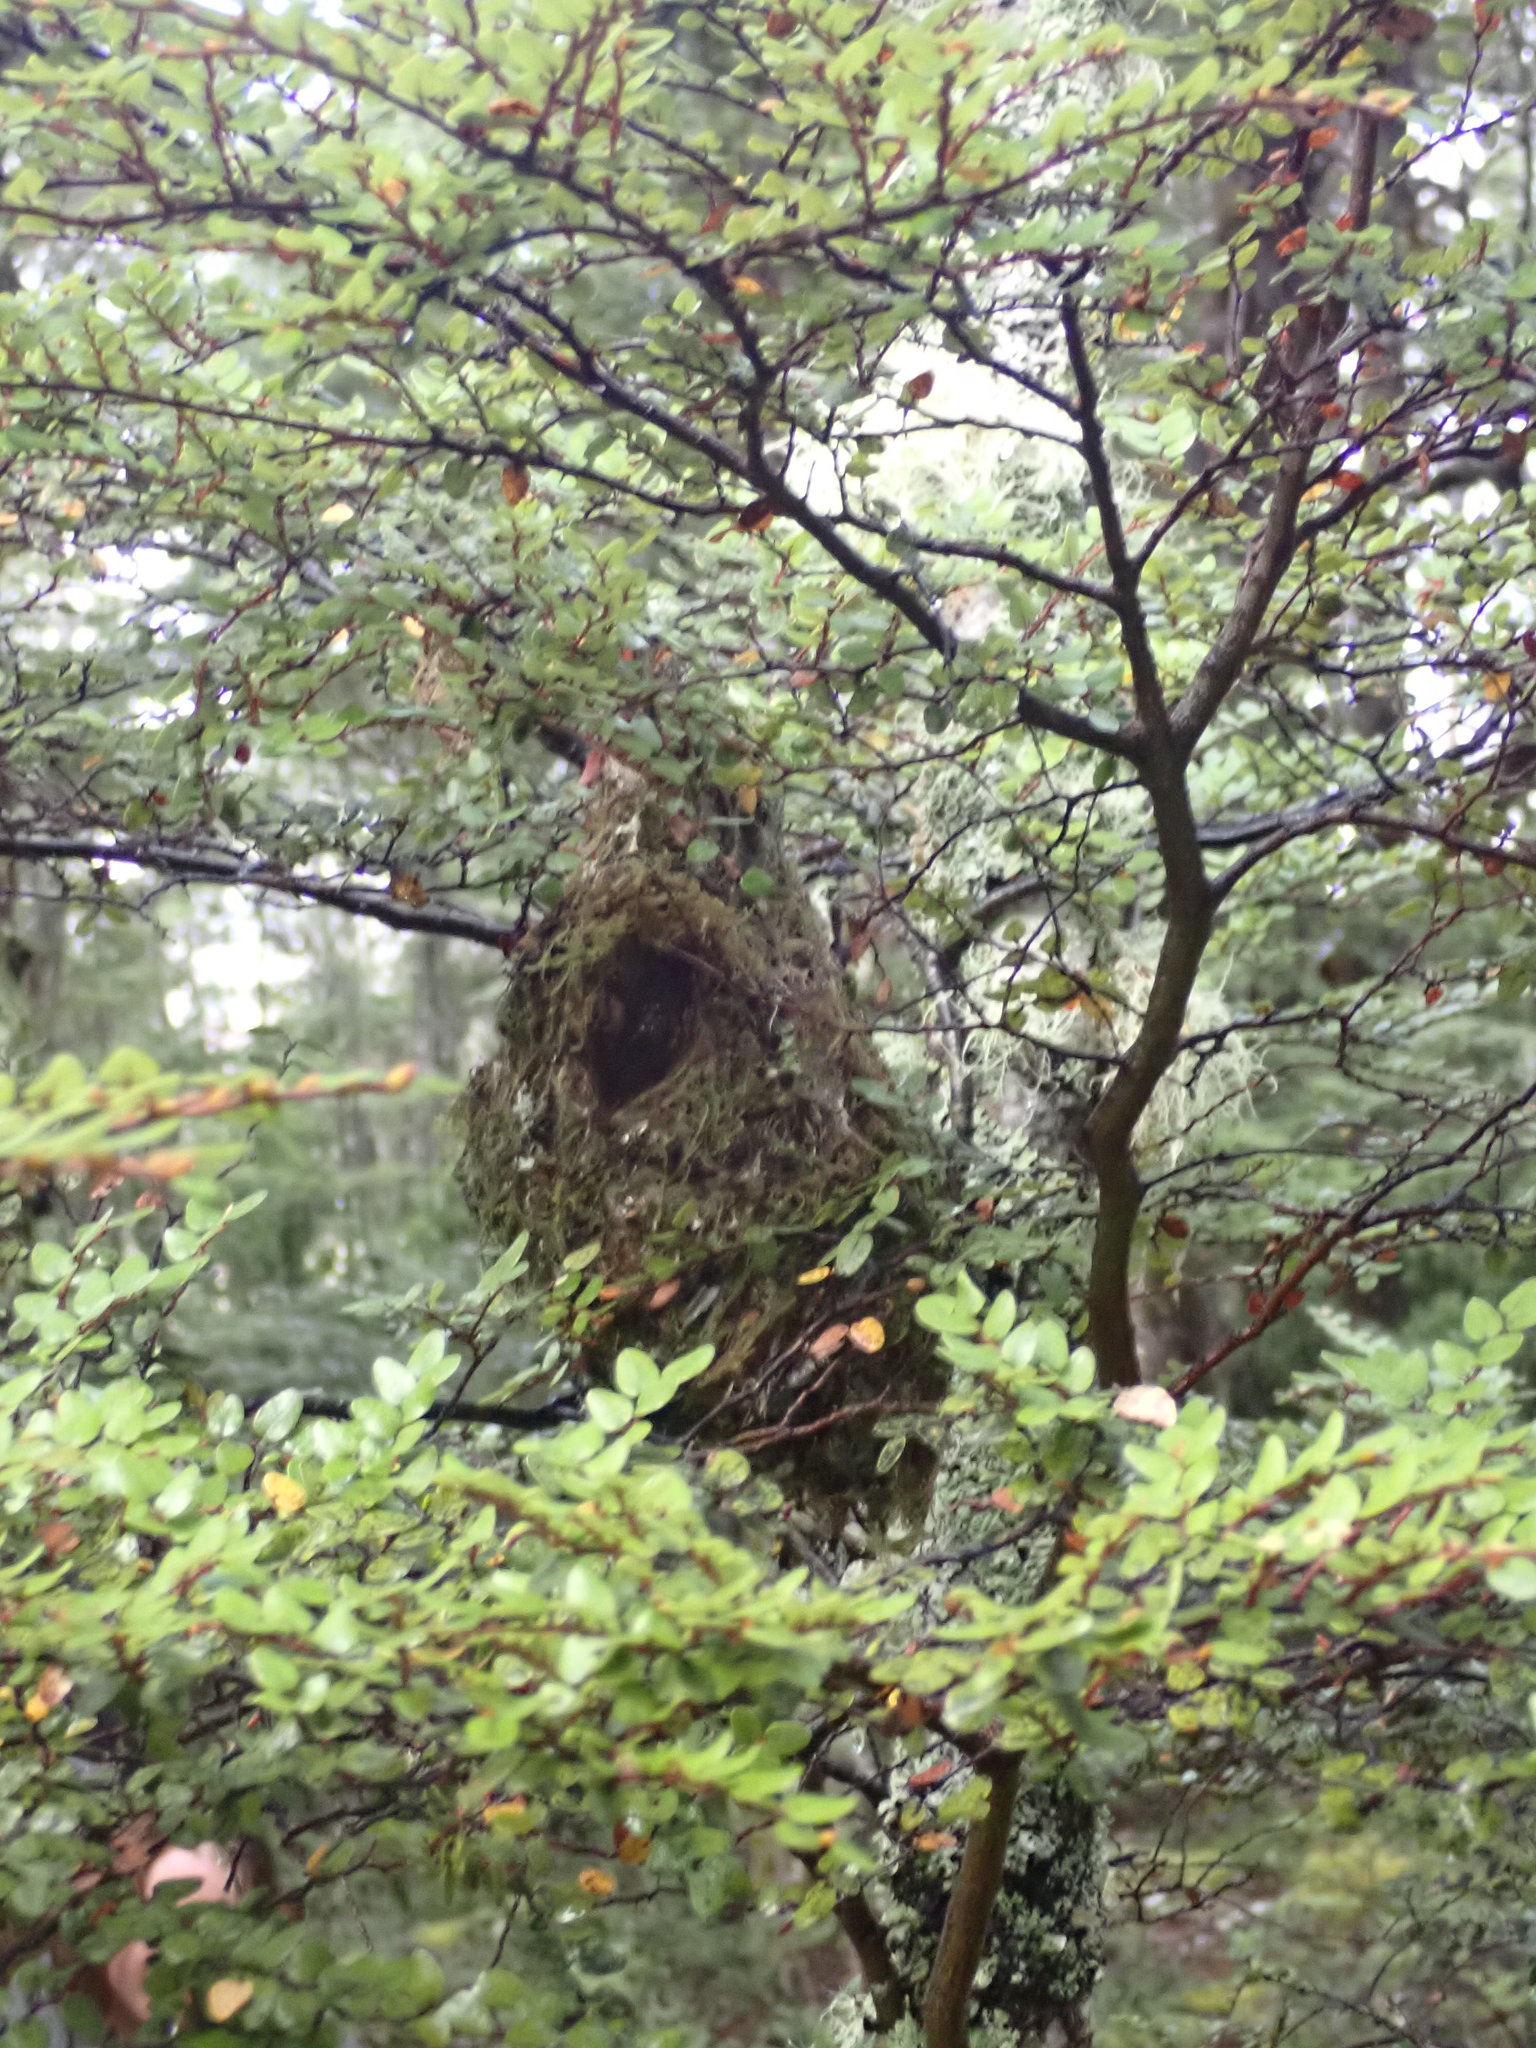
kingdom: Animalia
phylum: Chordata
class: Aves
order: Passeriformes
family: Acanthizidae
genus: Gerygone
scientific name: Gerygone igata
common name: Grey gerygone
